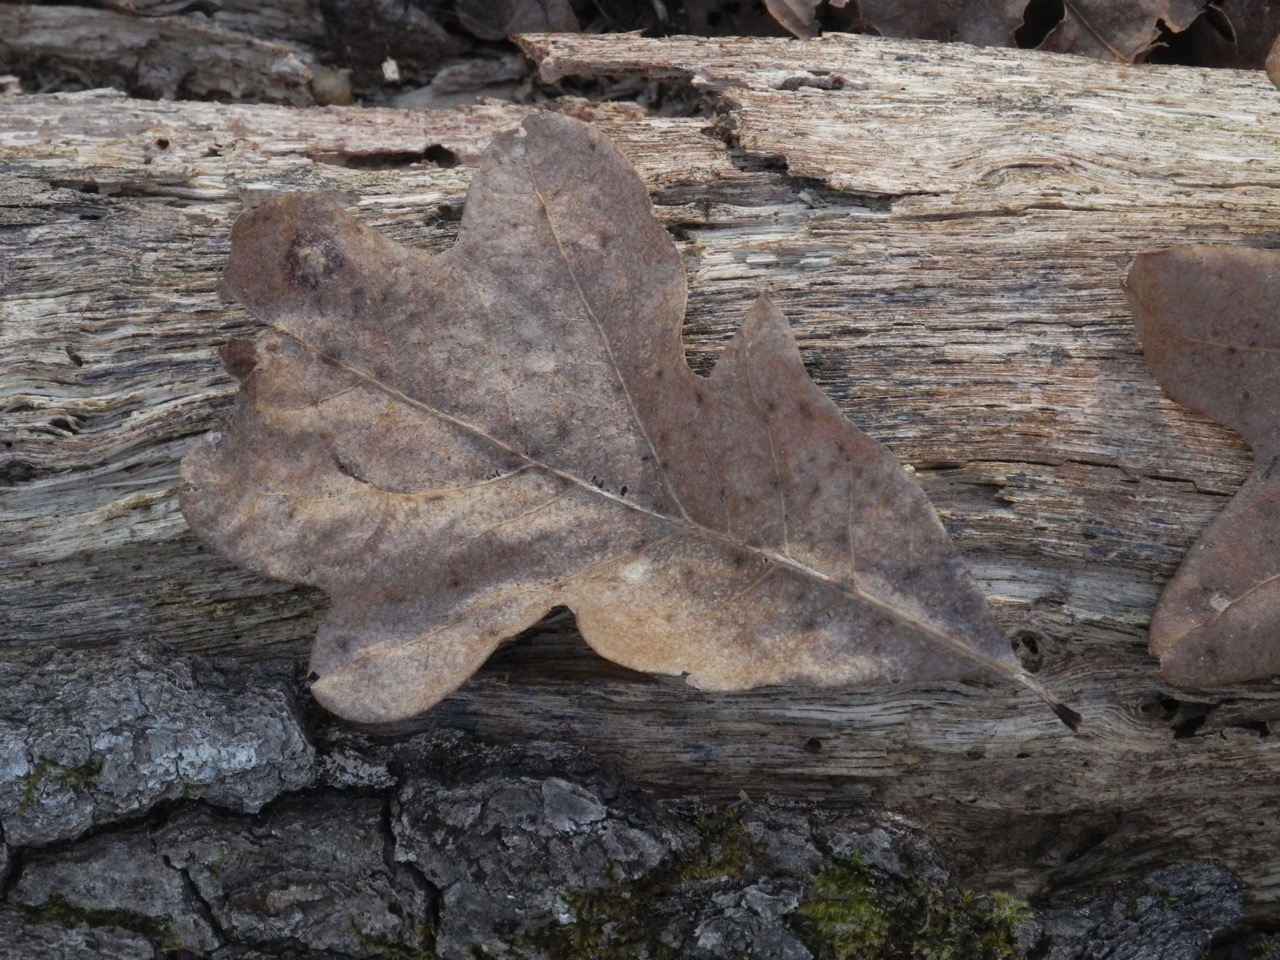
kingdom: Plantae
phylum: Tracheophyta
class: Magnoliopsida
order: Fagales
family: Fagaceae
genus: Quercus
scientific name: Quercus alba
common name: White oak
